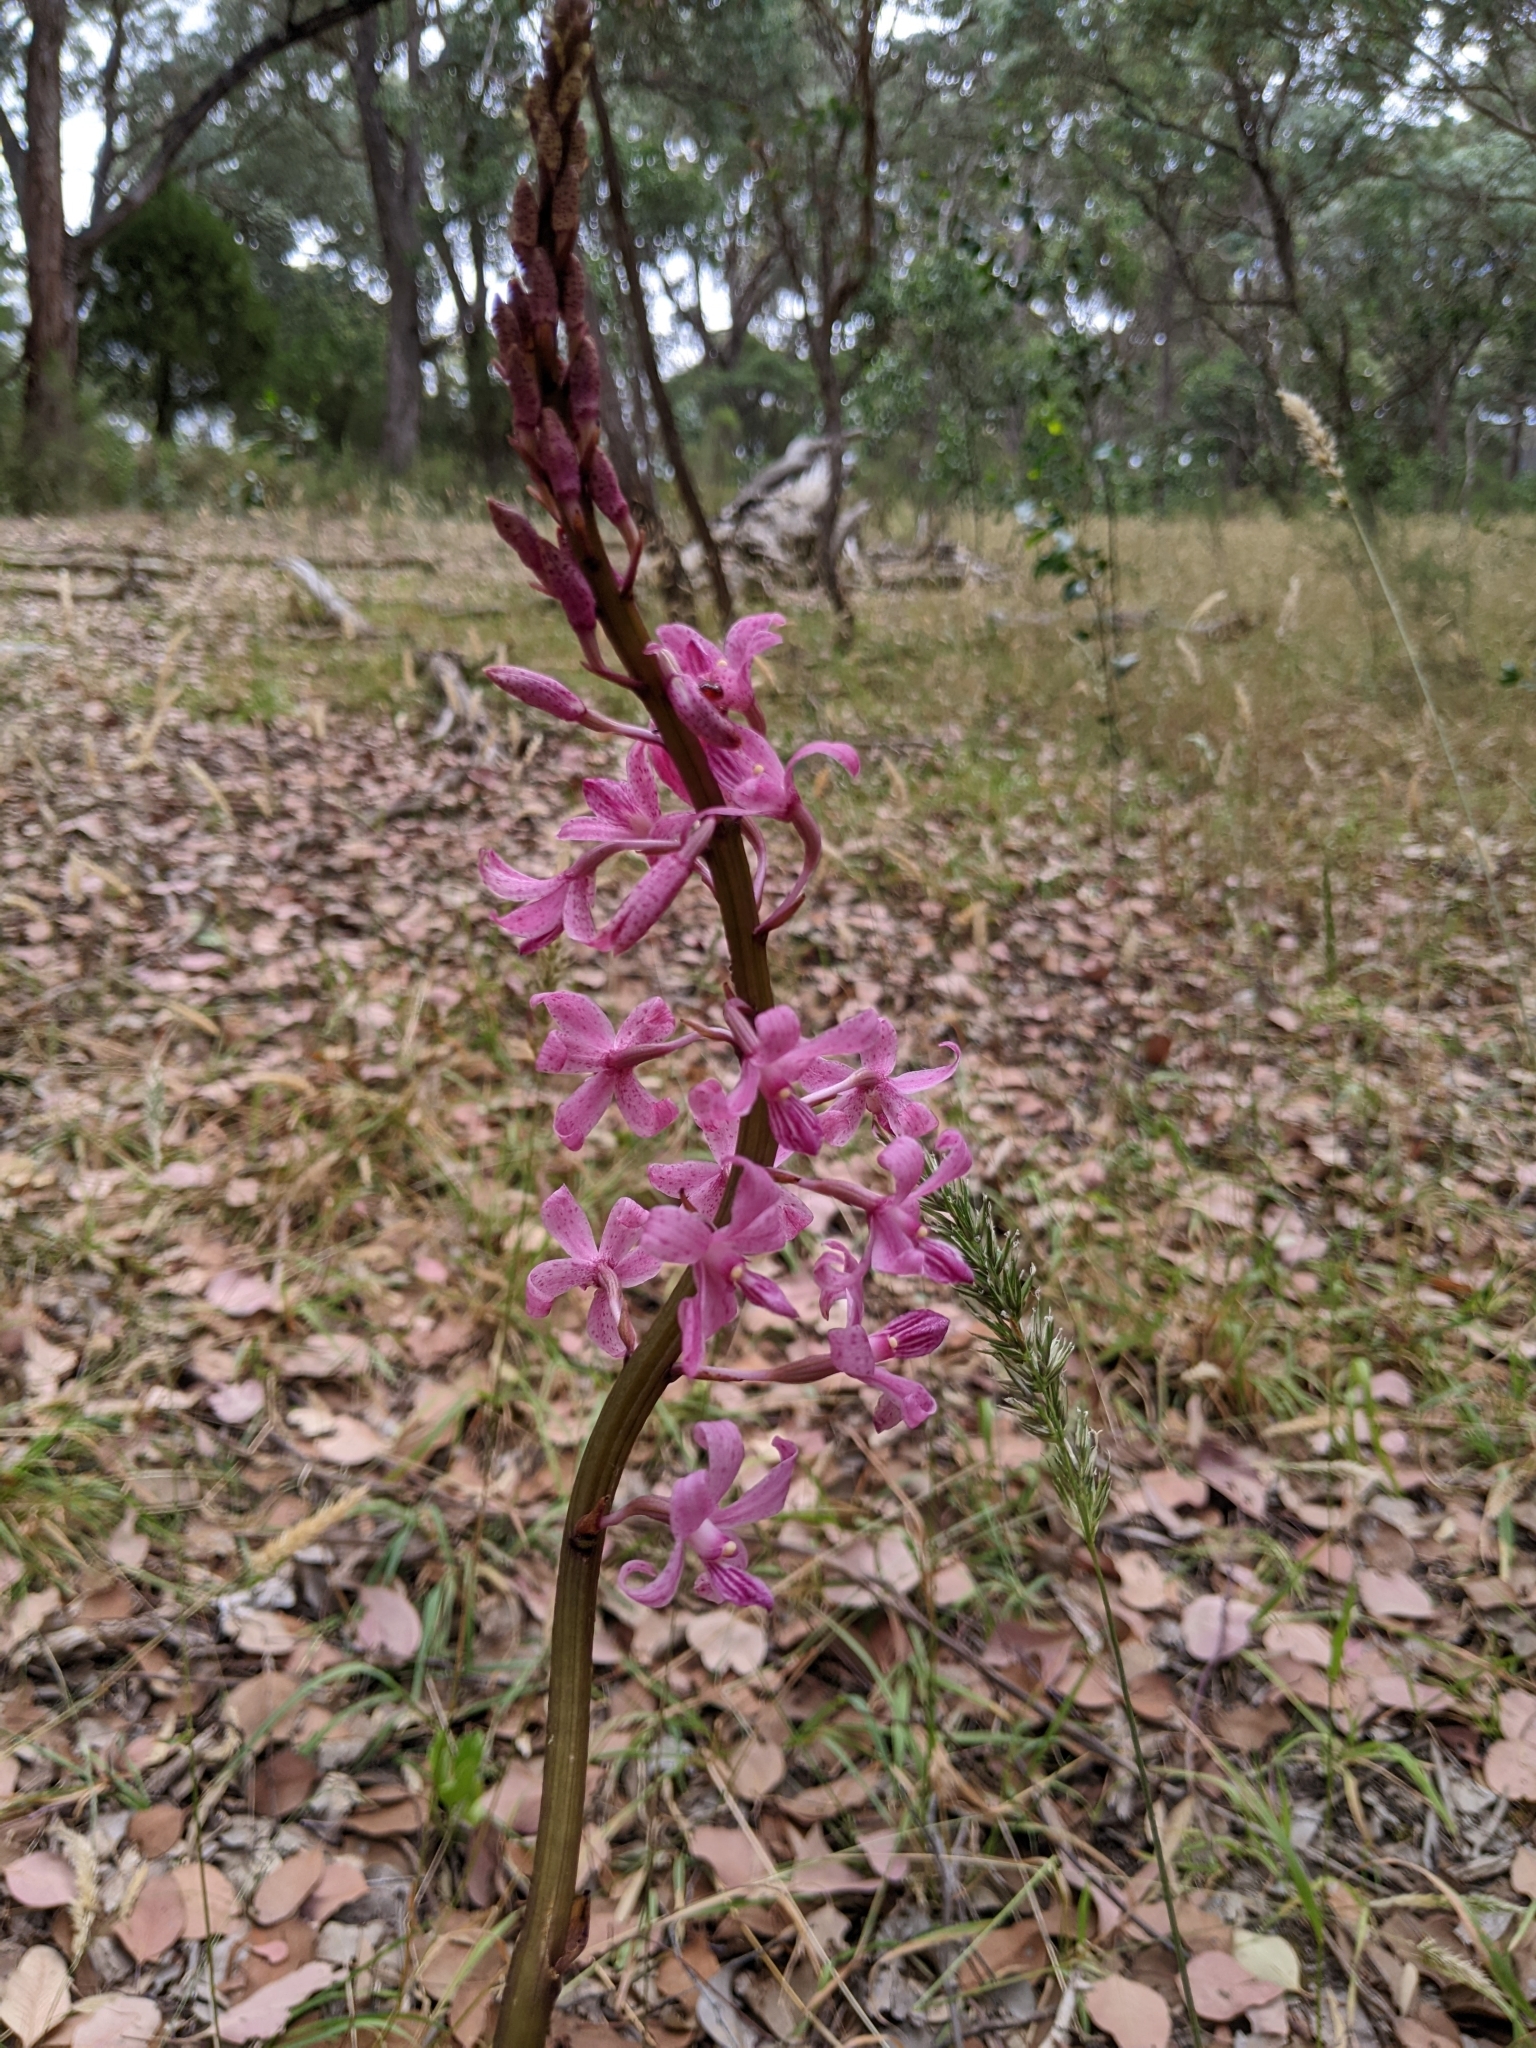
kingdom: Plantae
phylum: Tracheophyta
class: Liliopsida
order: Asparagales
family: Orchidaceae
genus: Dipodium
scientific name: Dipodium roseum
